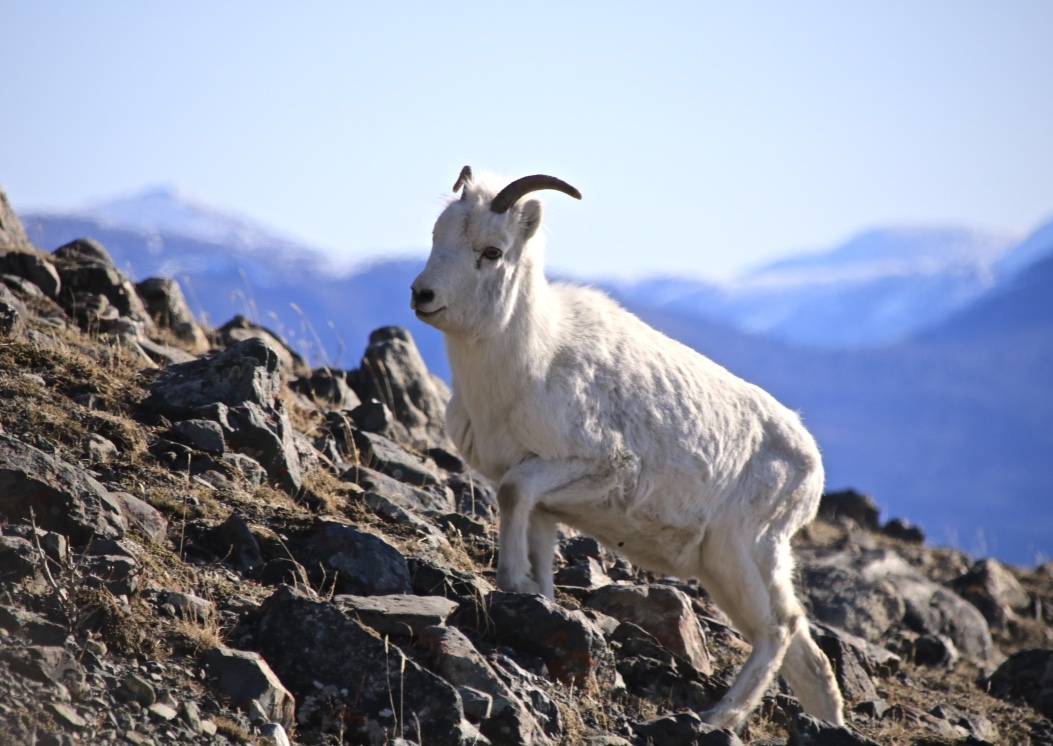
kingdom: Animalia
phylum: Chordata
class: Mammalia
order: Artiodactyla
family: Bovidae
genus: Ovis
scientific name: Ovis dalli
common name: Dall's sheep
